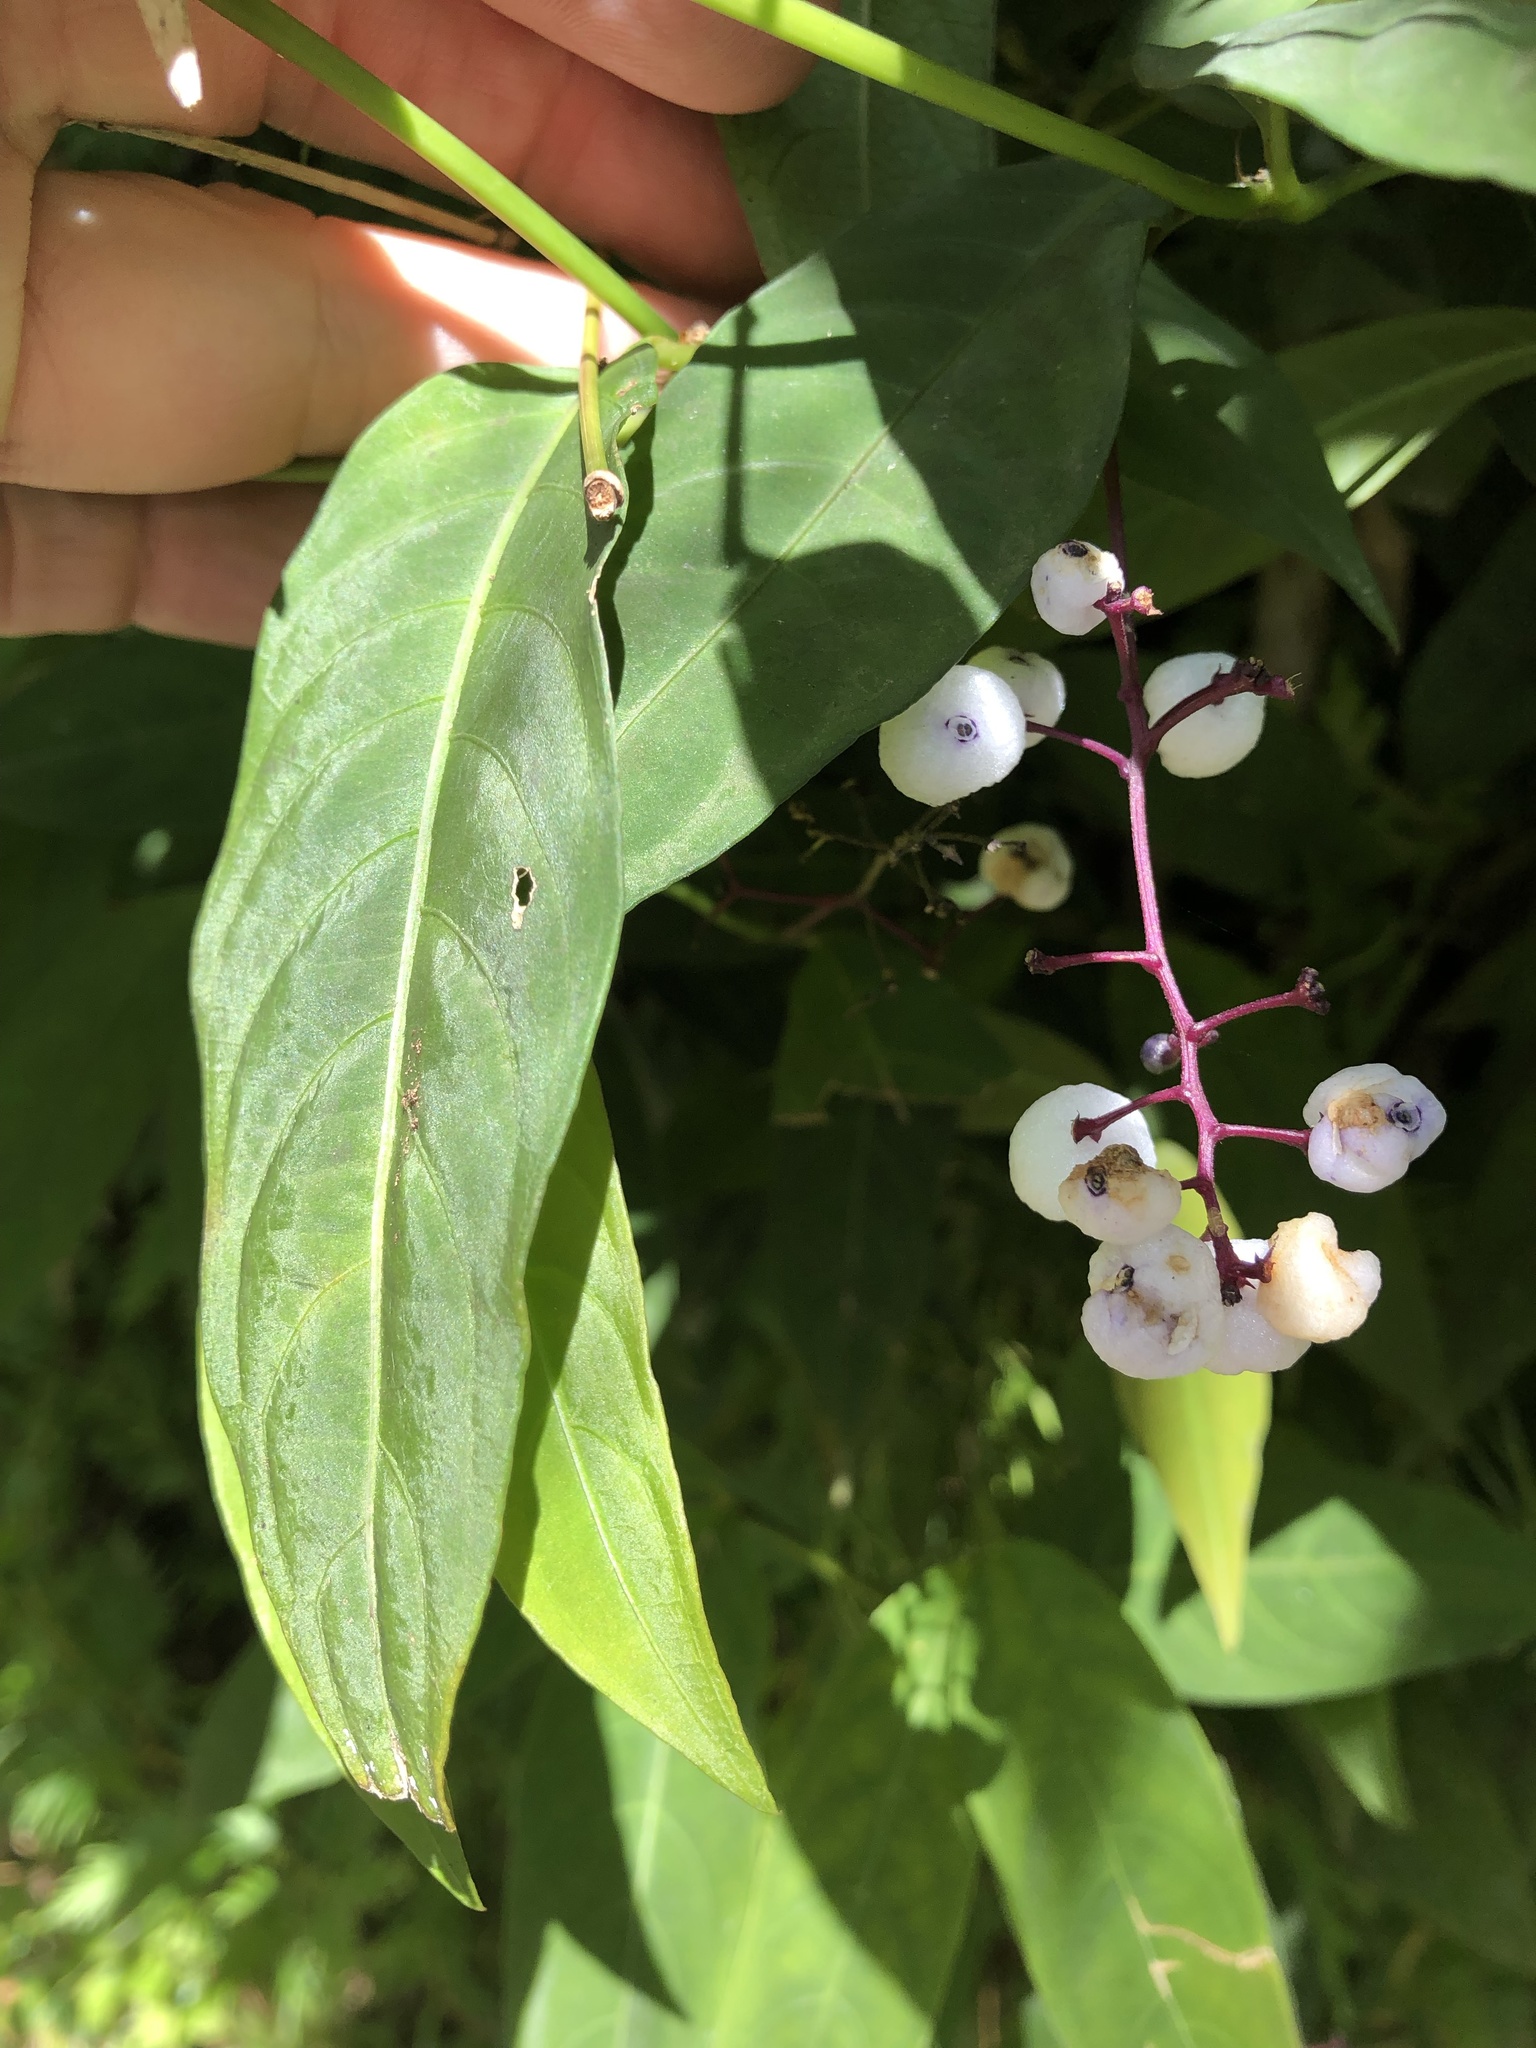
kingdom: Plantae
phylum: Tracheophyta
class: Magnoliopsida
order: Gentianales
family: Rubiaceae
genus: Chiococca
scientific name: Chiococca alba
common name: Snowberry
